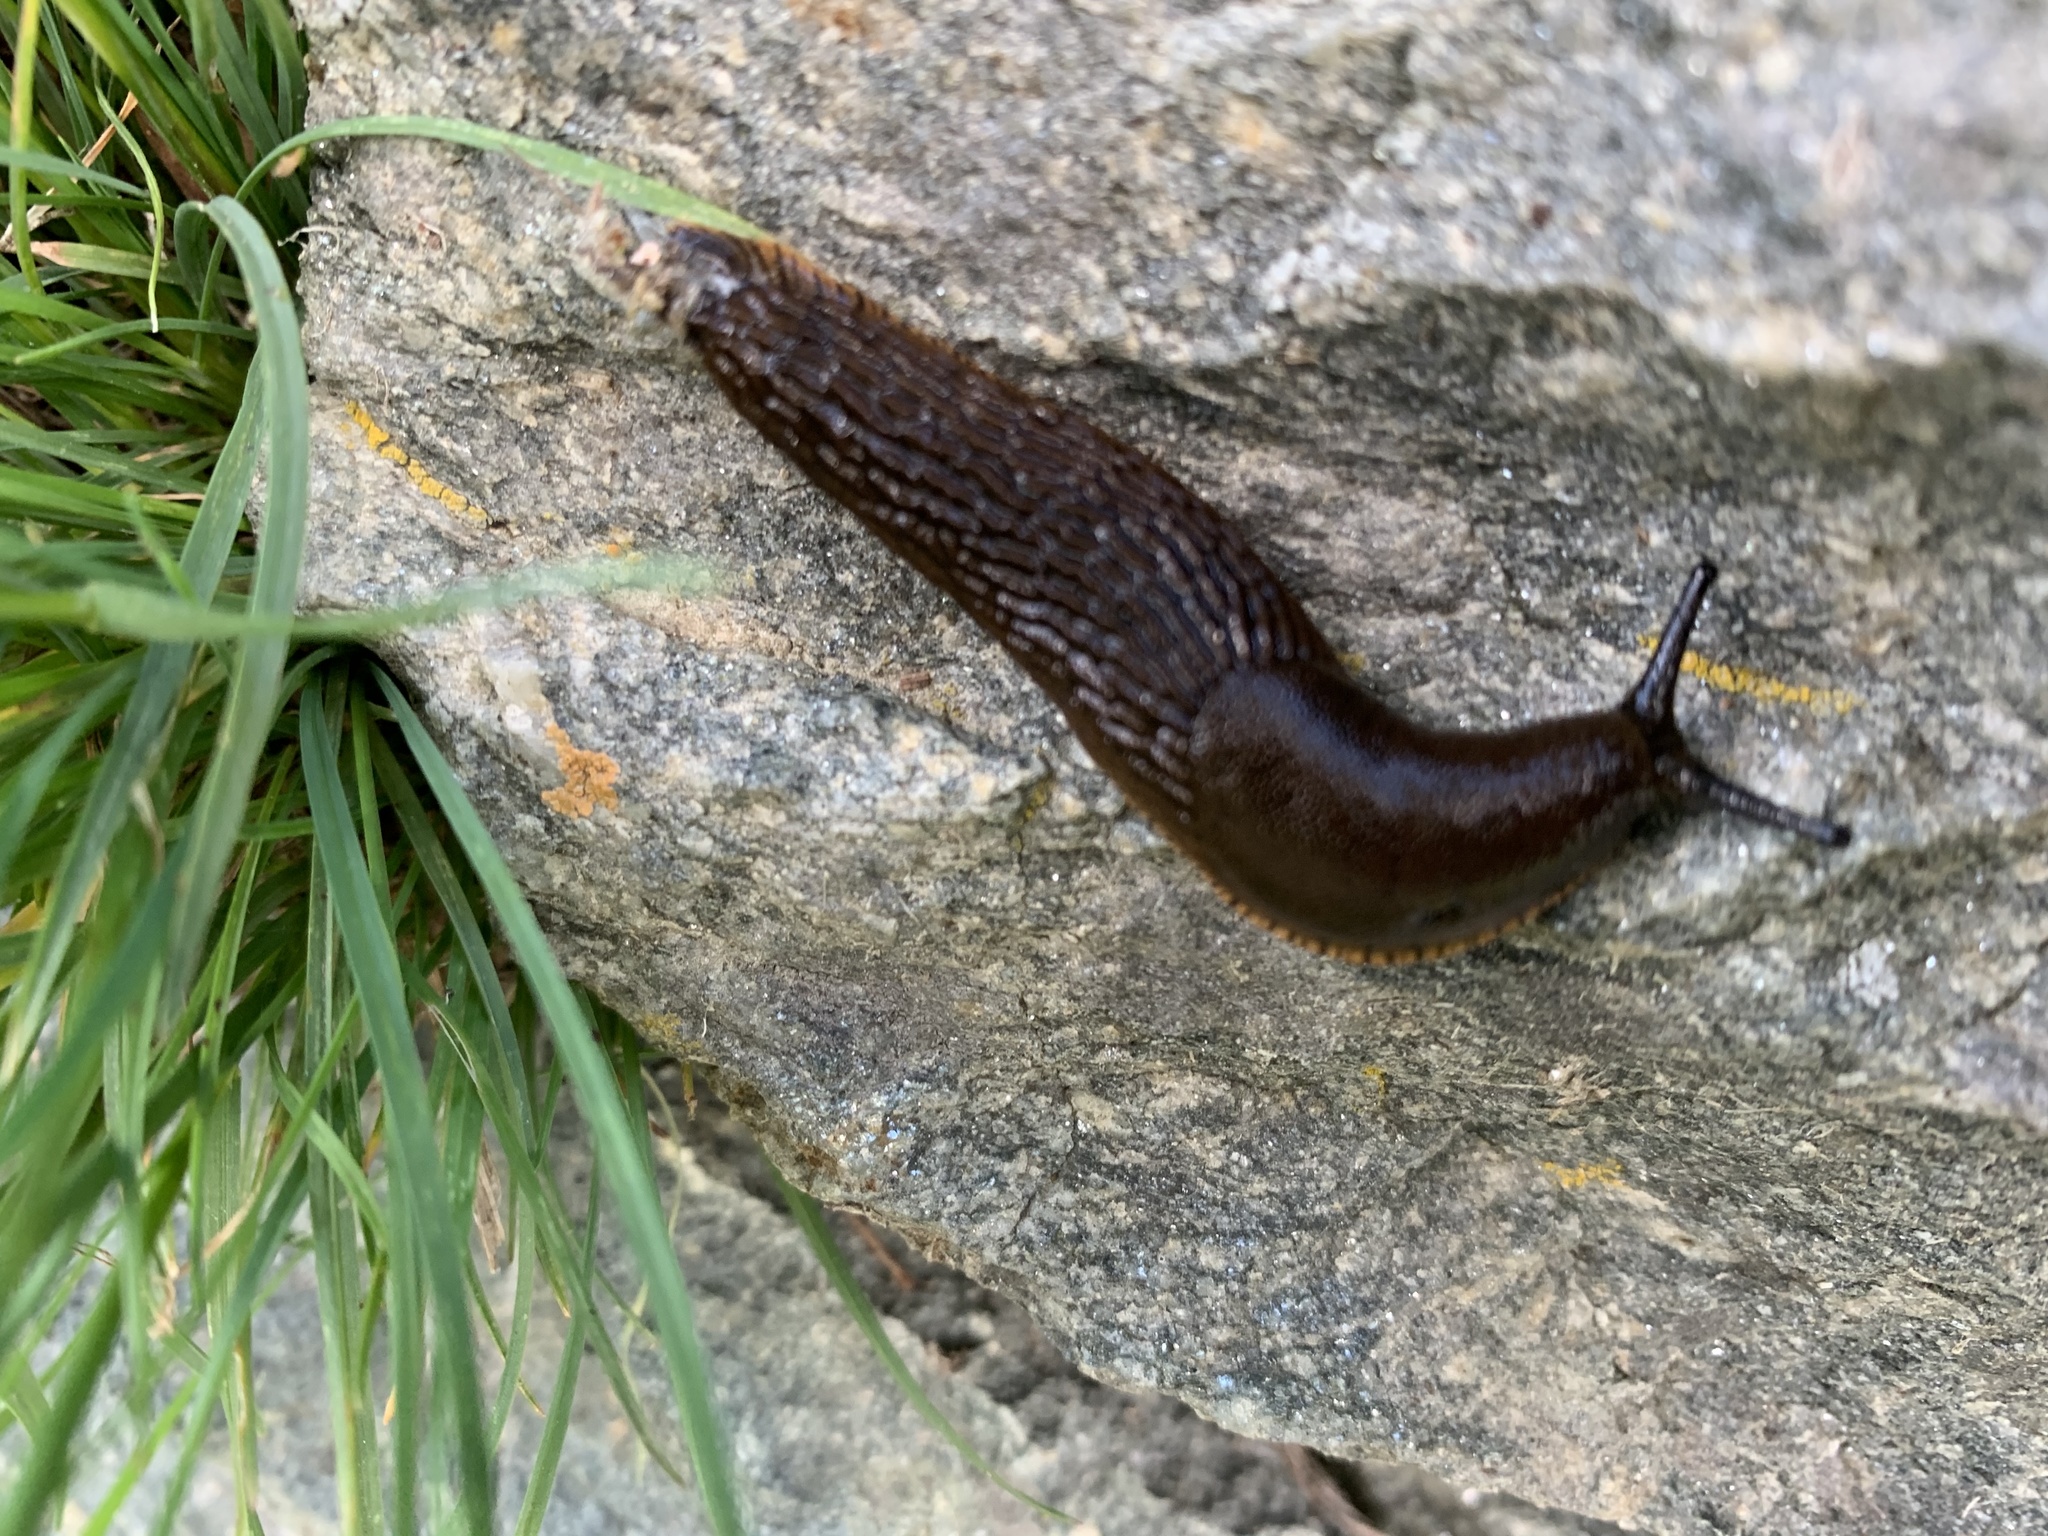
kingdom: Animalia
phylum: Mollusca
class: Gastropoda
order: Stylommatophora
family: Arionidae
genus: Arion
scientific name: Arion rufus
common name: Chocolate arion
